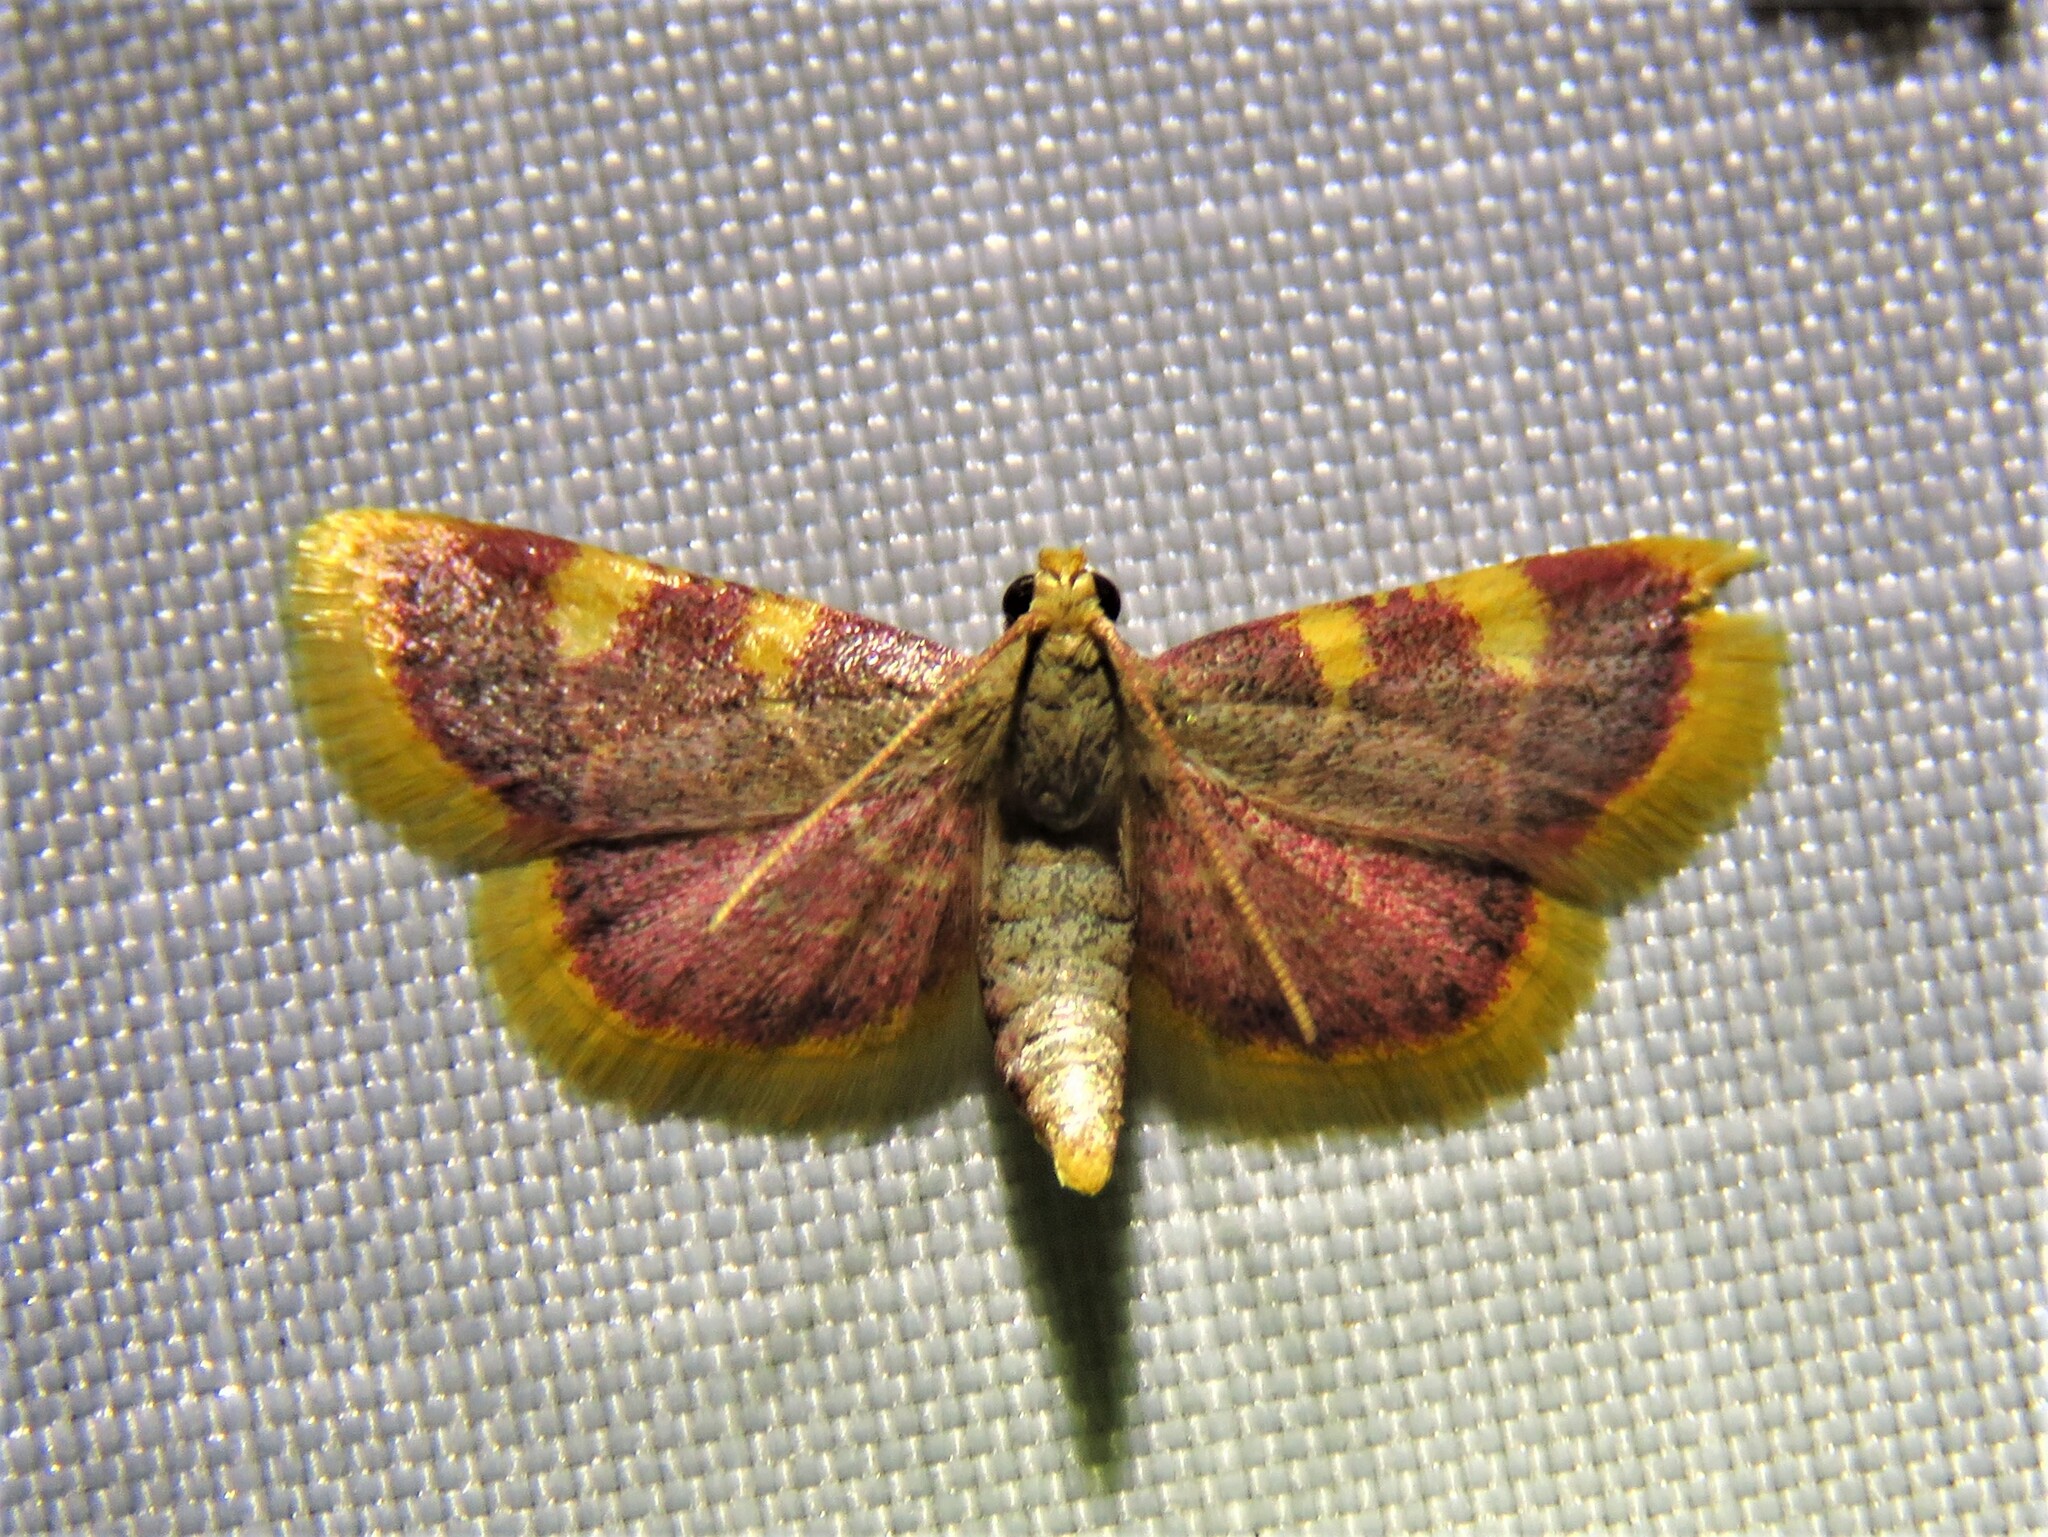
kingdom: Animalia
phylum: Arthropoda
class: Insecta
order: Lepidoptera
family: Pyralidae
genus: Hypsopygia
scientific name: Hypsopygia costalis
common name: Gold triangle
